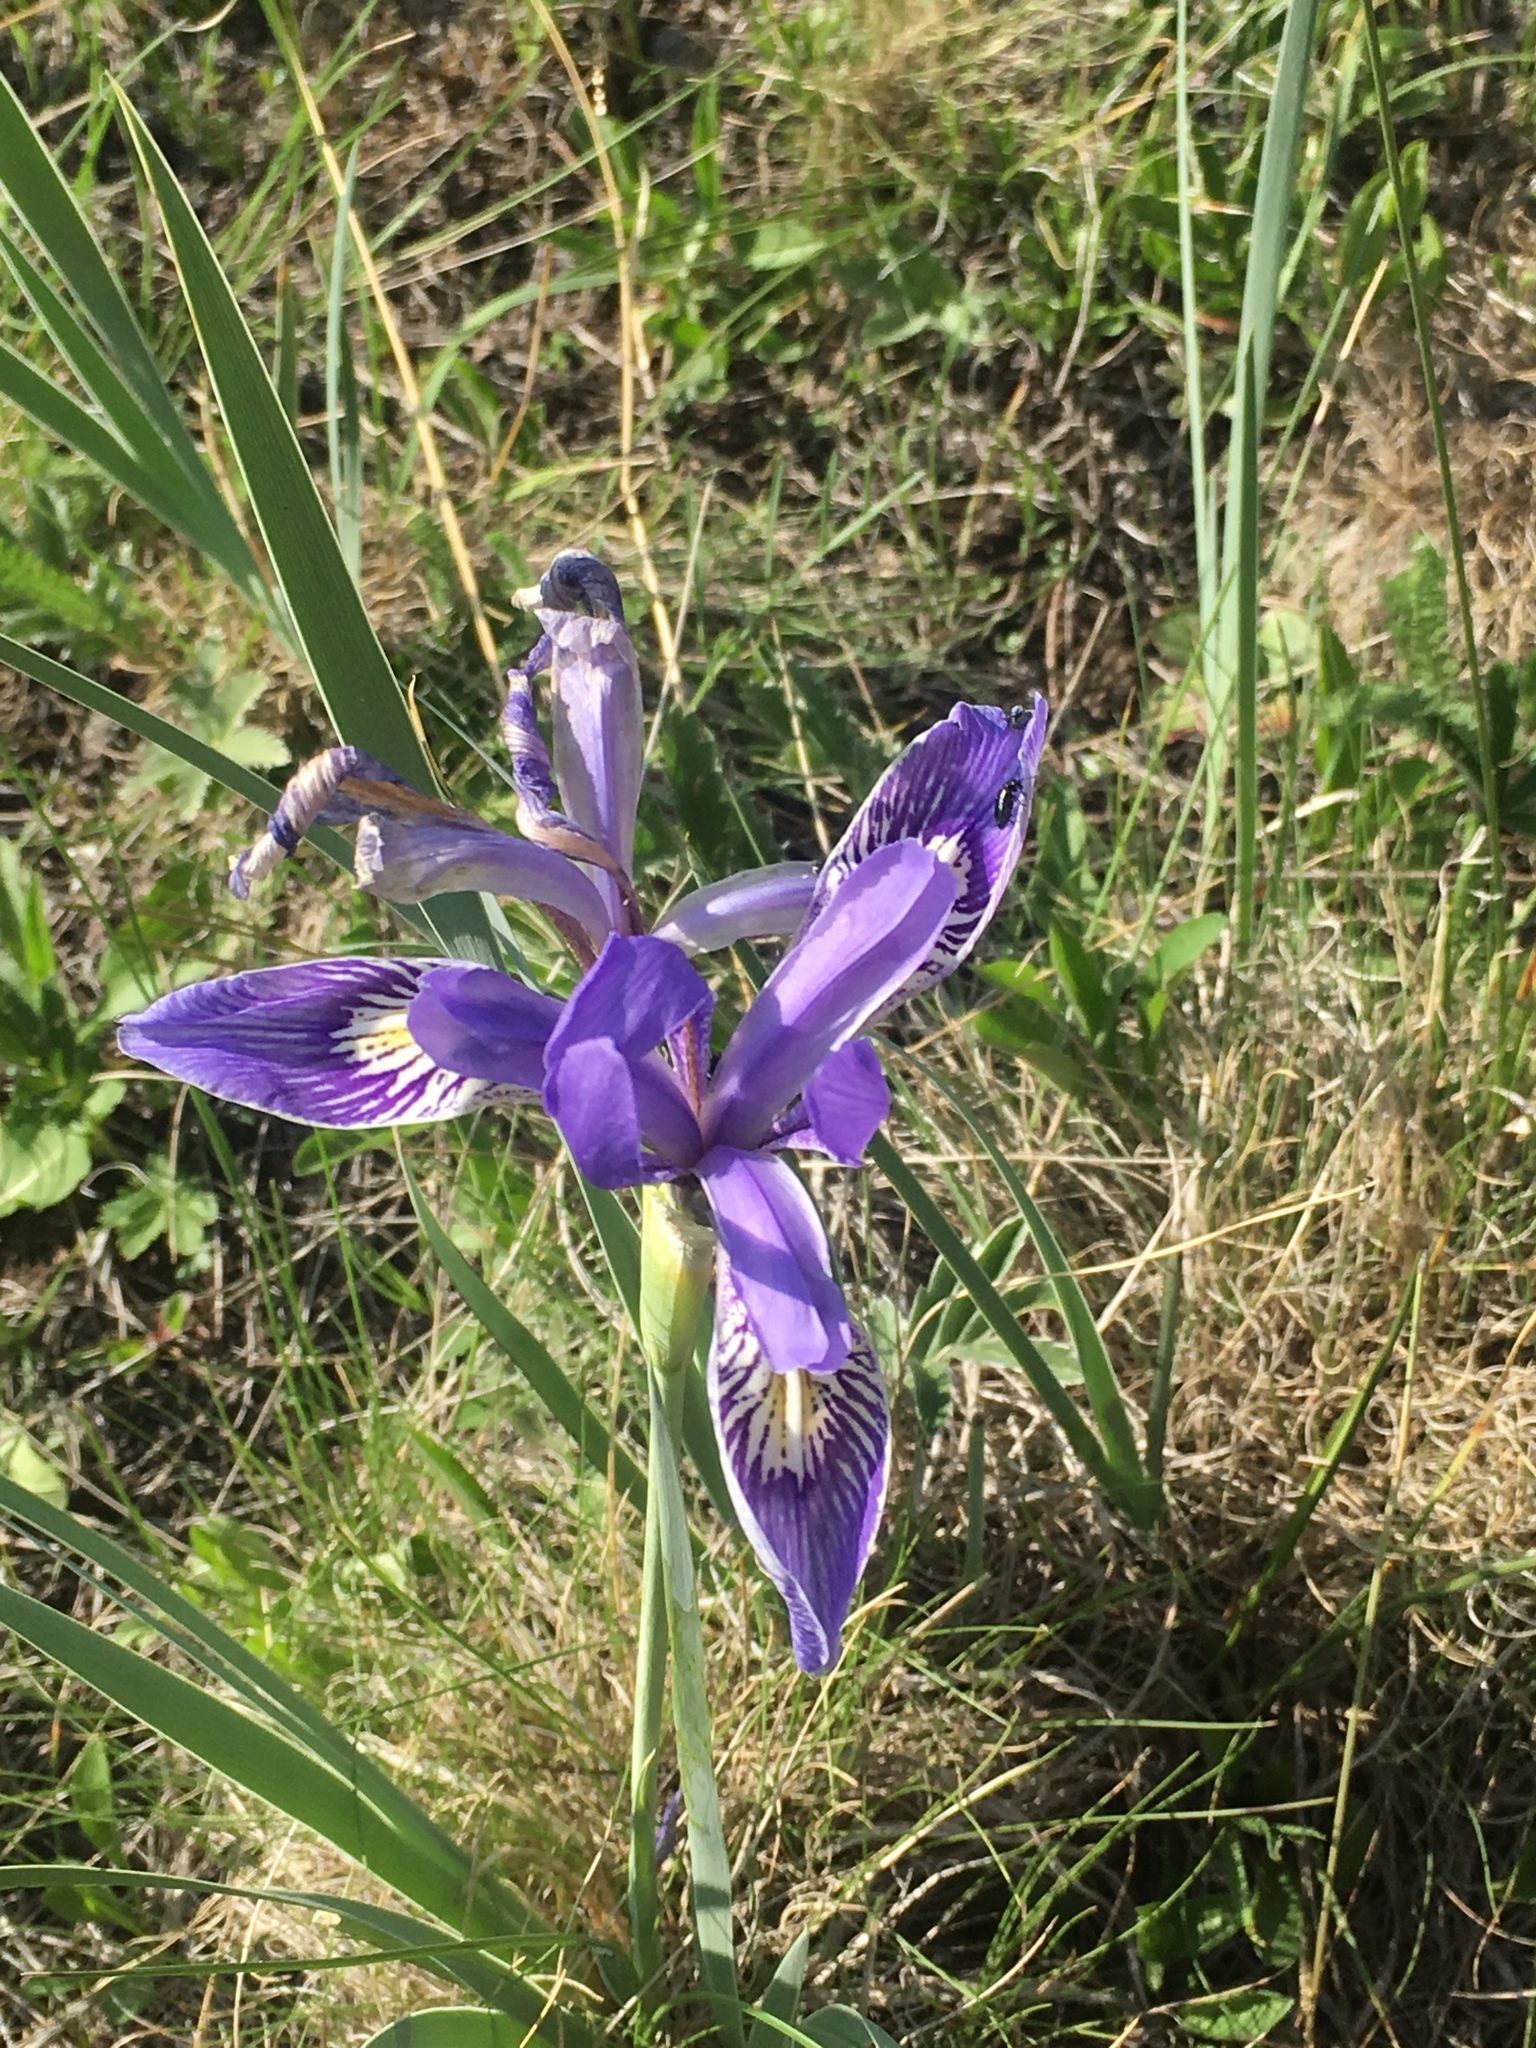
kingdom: Plantae
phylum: Tracheophyta
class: Liliopsida
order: Asparagales
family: Iridaceae
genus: Iris
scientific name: Iris missouriensis
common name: Rocky mountain iris
